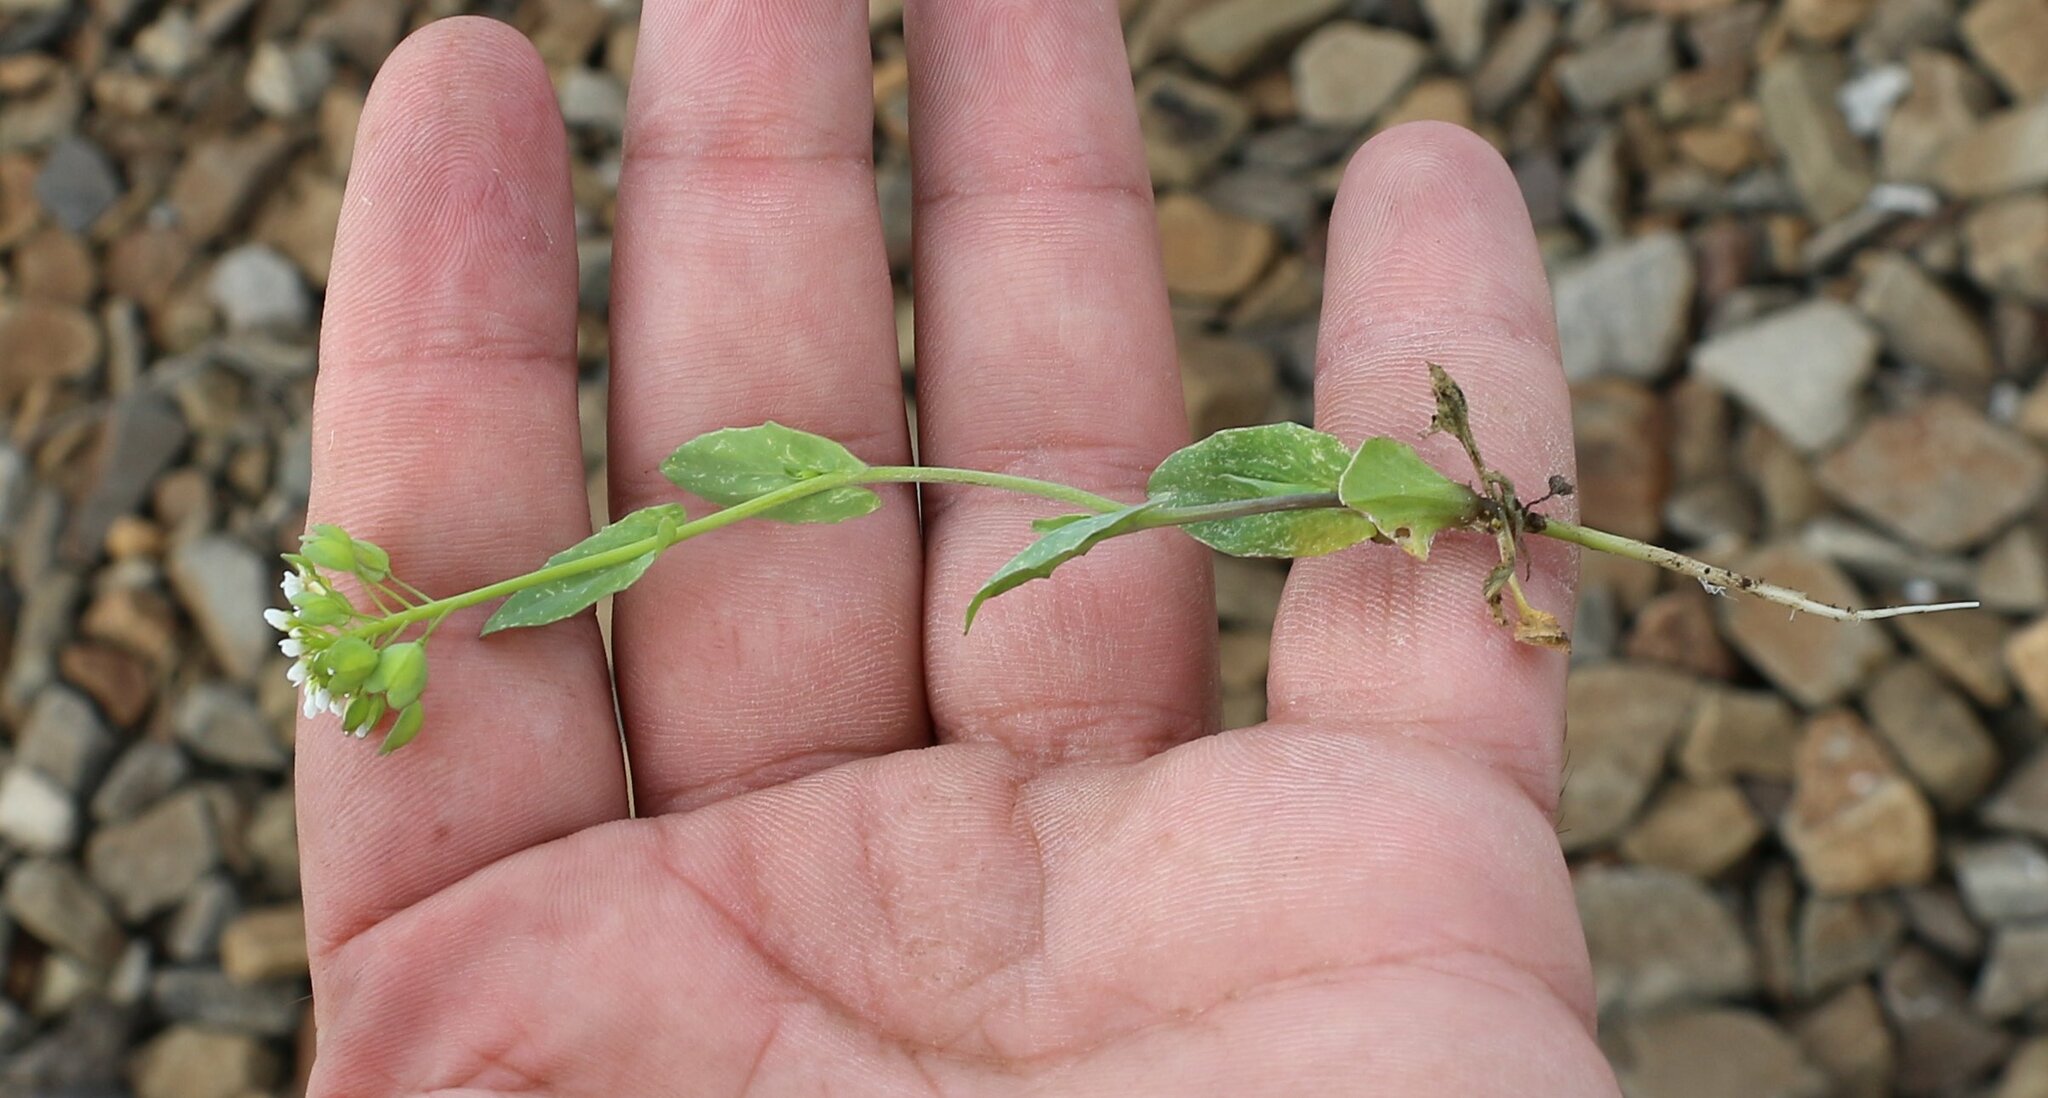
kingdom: Plantae
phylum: Tracheophyta
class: Magnoliopsida
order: Brassicales
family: Brassicaceae
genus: Noccaea
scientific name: Noccaea perfoliata
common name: Perfoliate pennycress
